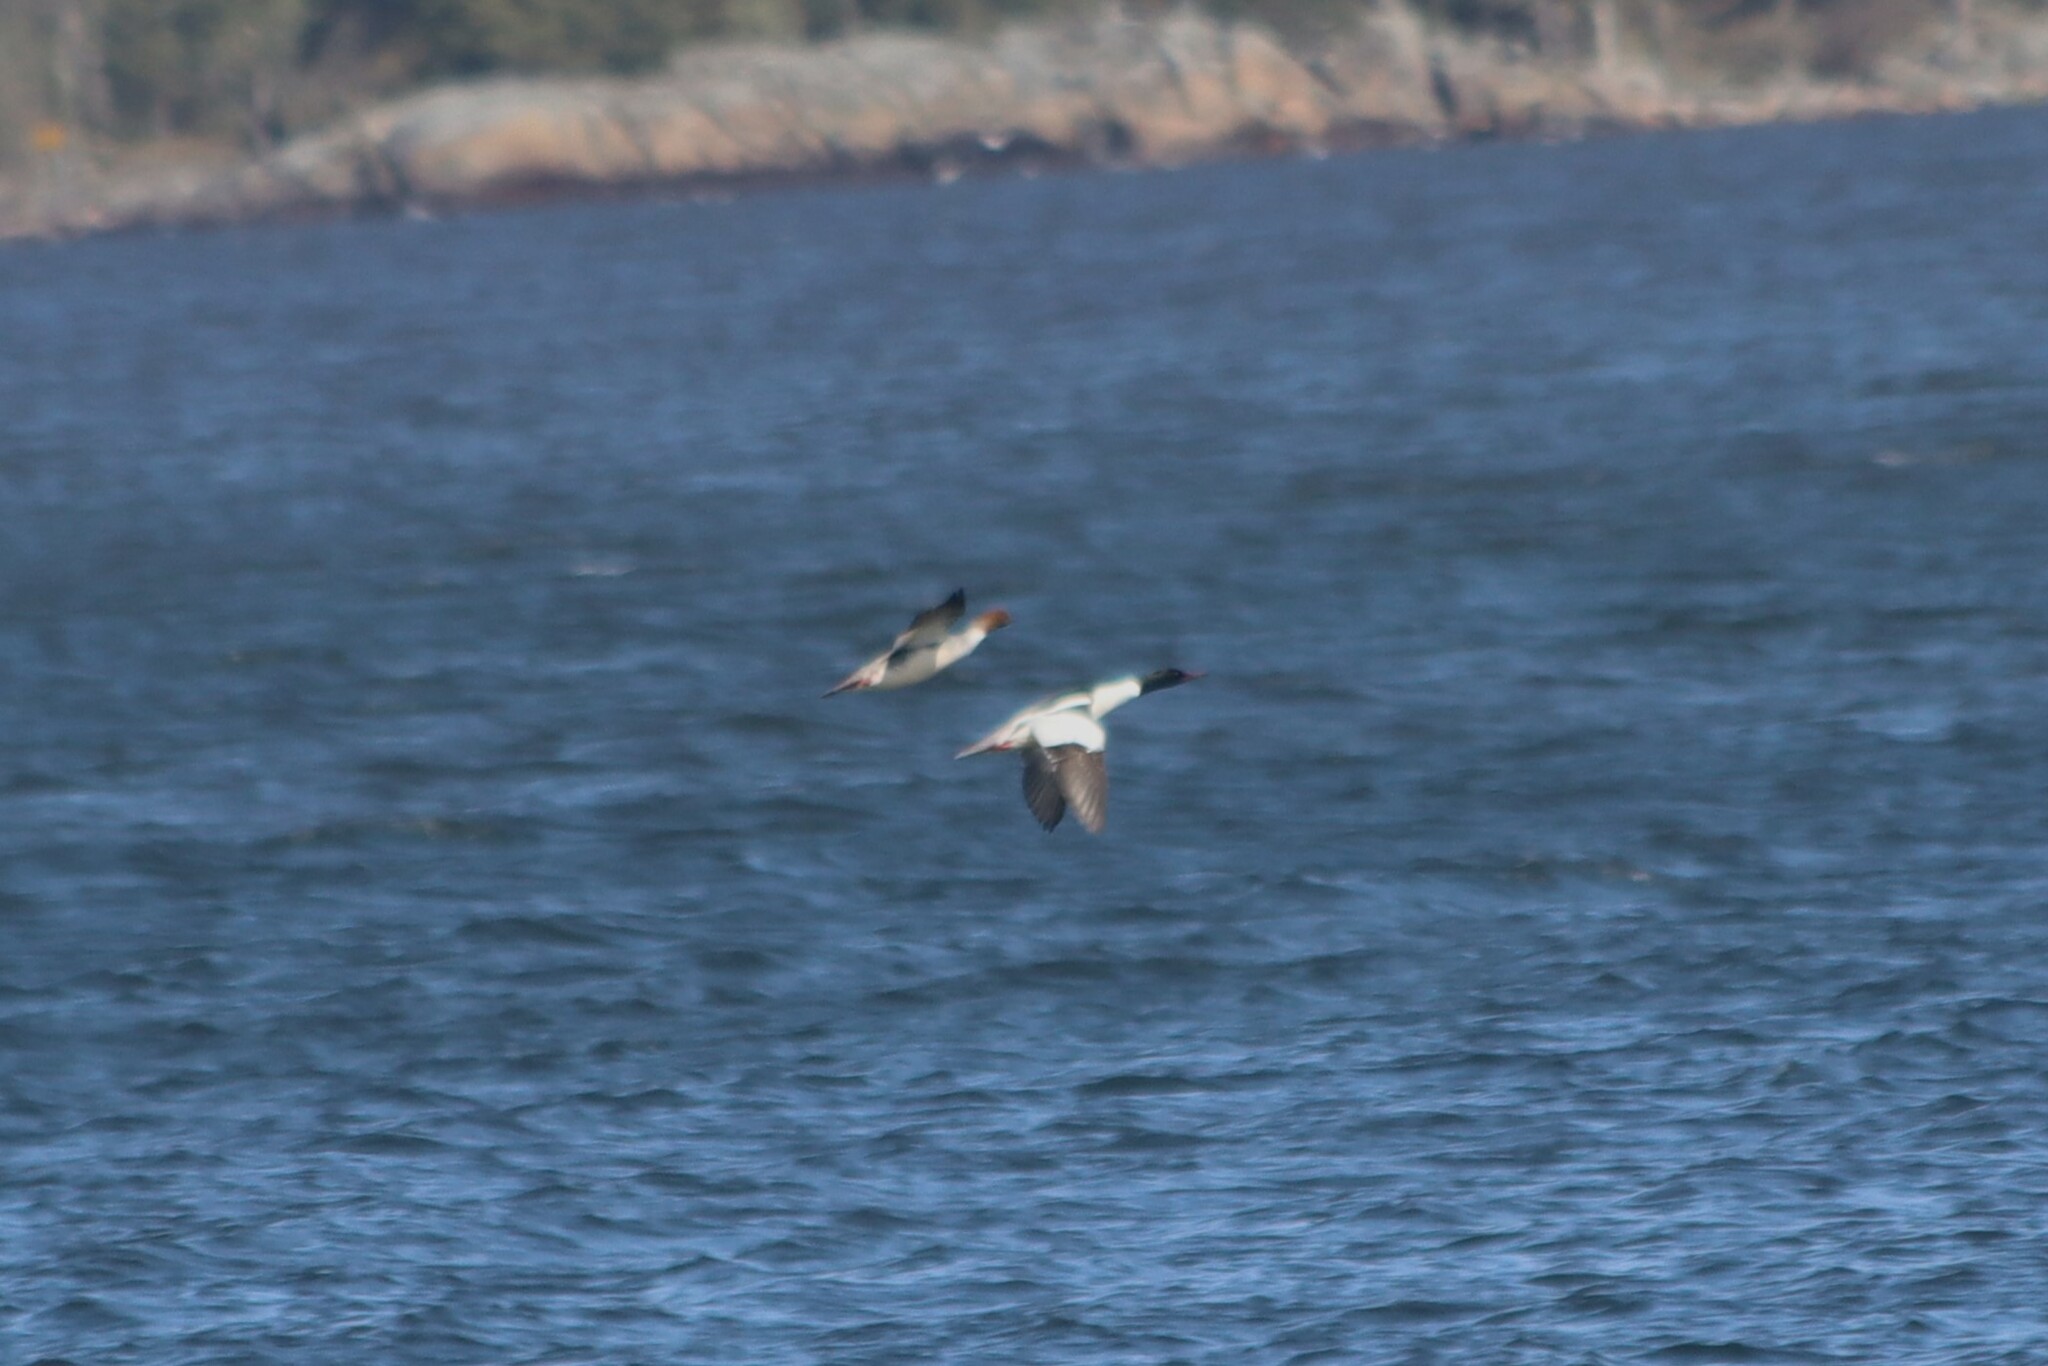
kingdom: Animalia
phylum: Chordata
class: Aves
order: Anseriformes
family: Anatidae
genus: Mergus
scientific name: Mergus merganser
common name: Common merganser
